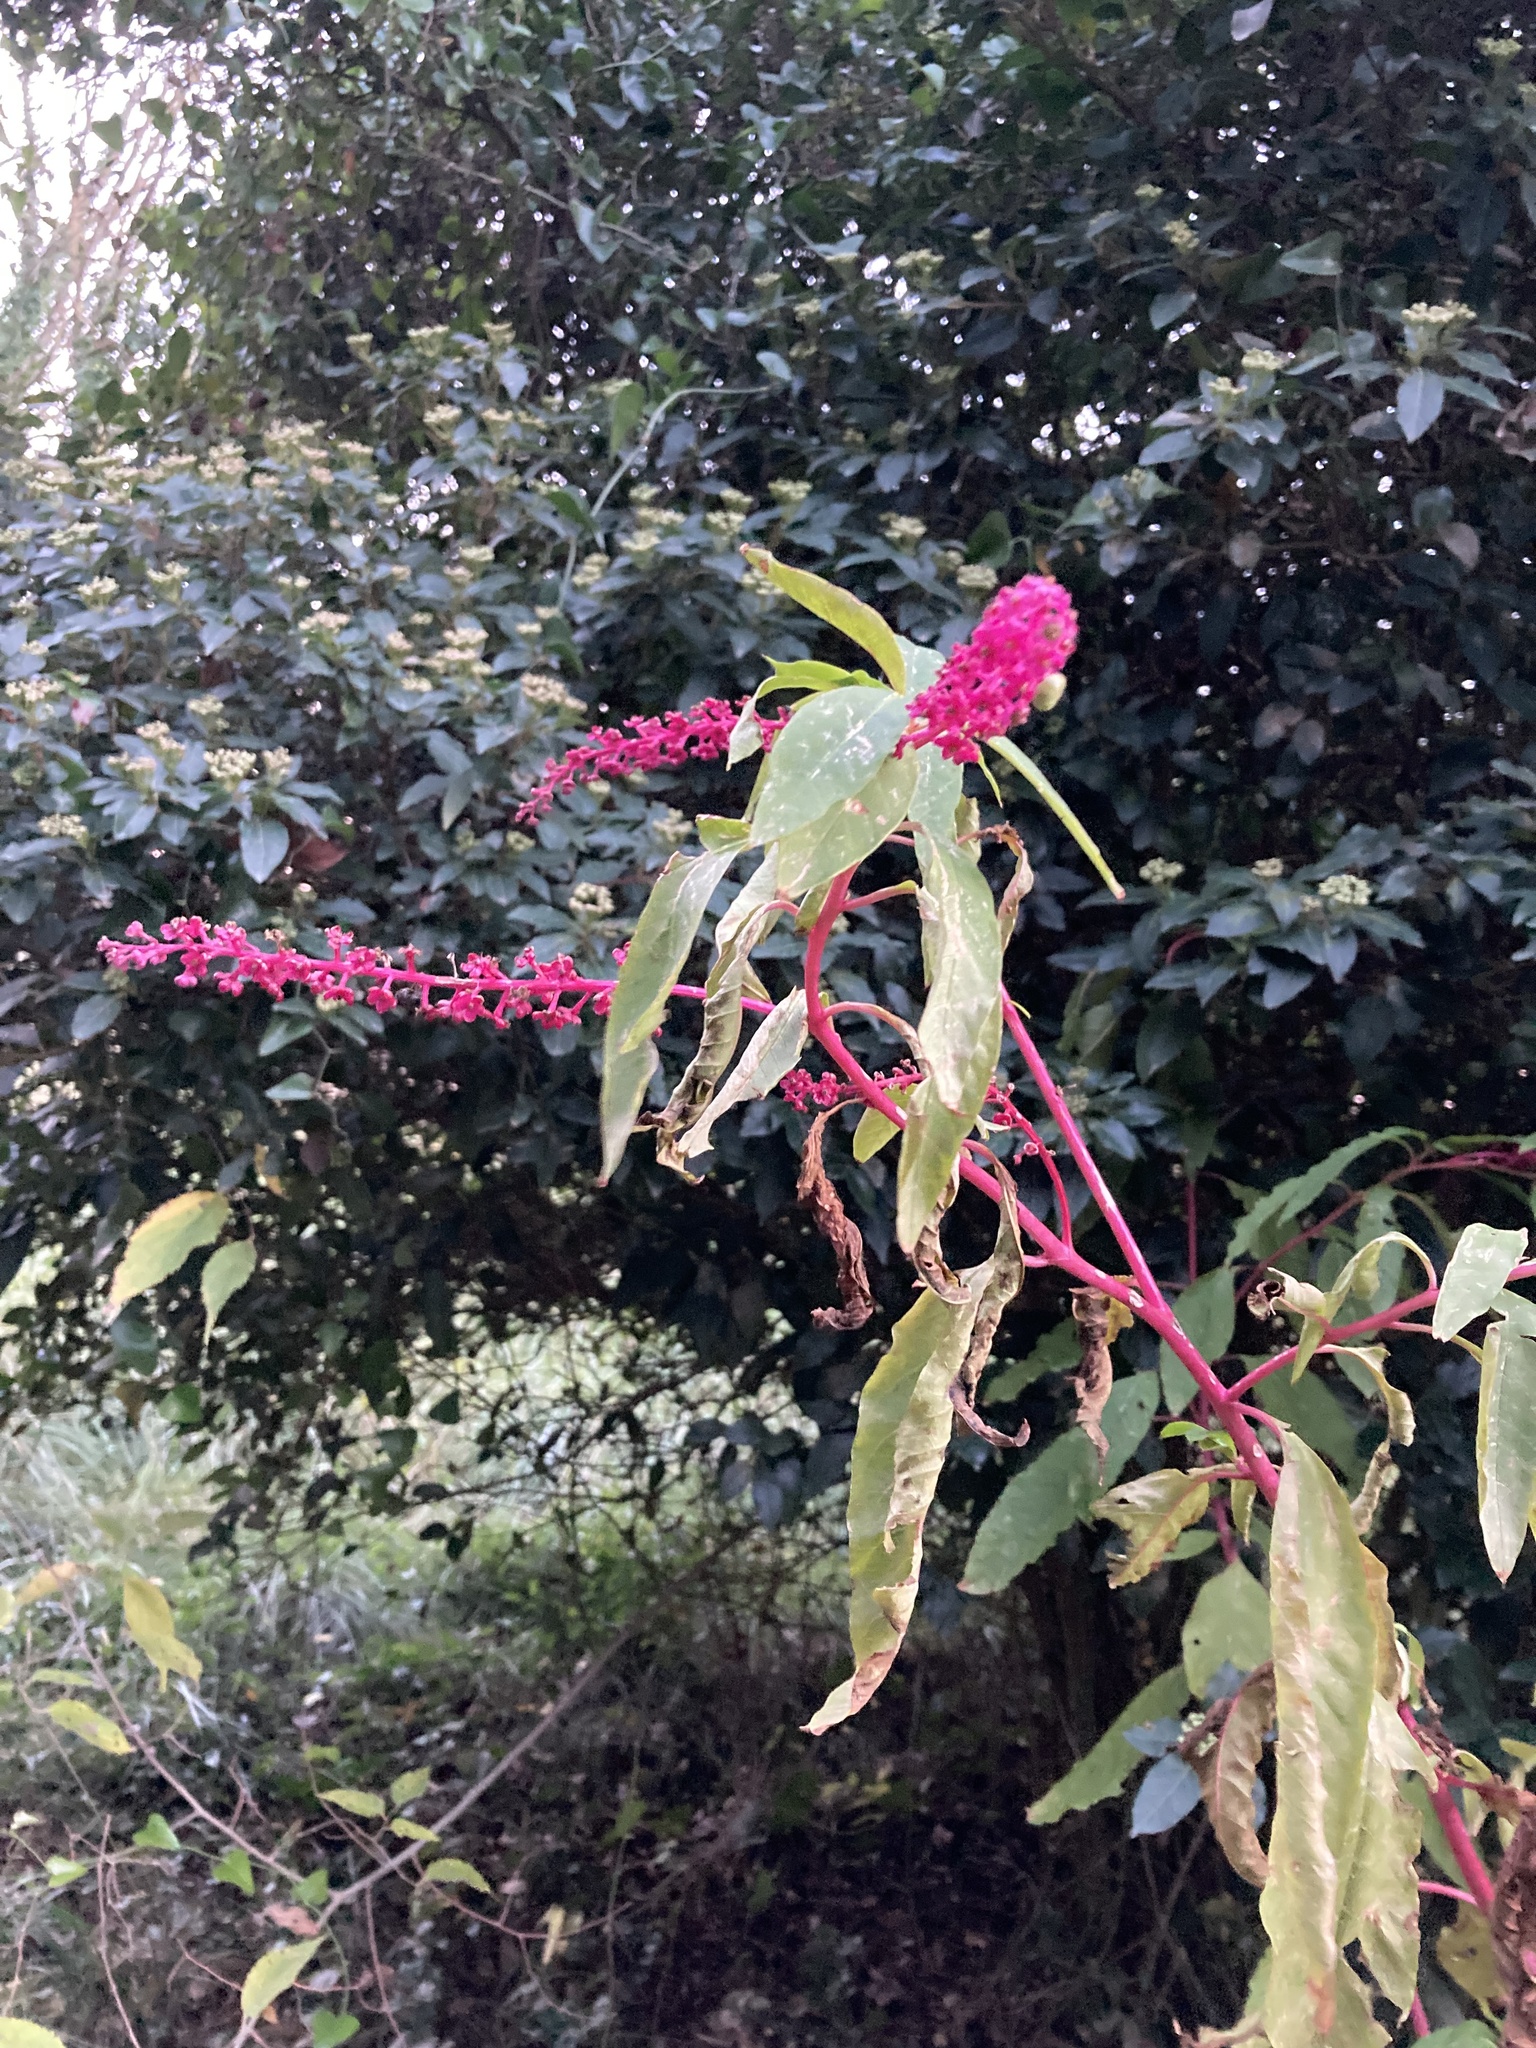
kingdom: Plantae
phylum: Tracheophyta
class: Magnoliopsida
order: Caryophyllales
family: Phytolaccaceae
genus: Phytolacca
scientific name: Phytolacca americana
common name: American pokeweed
